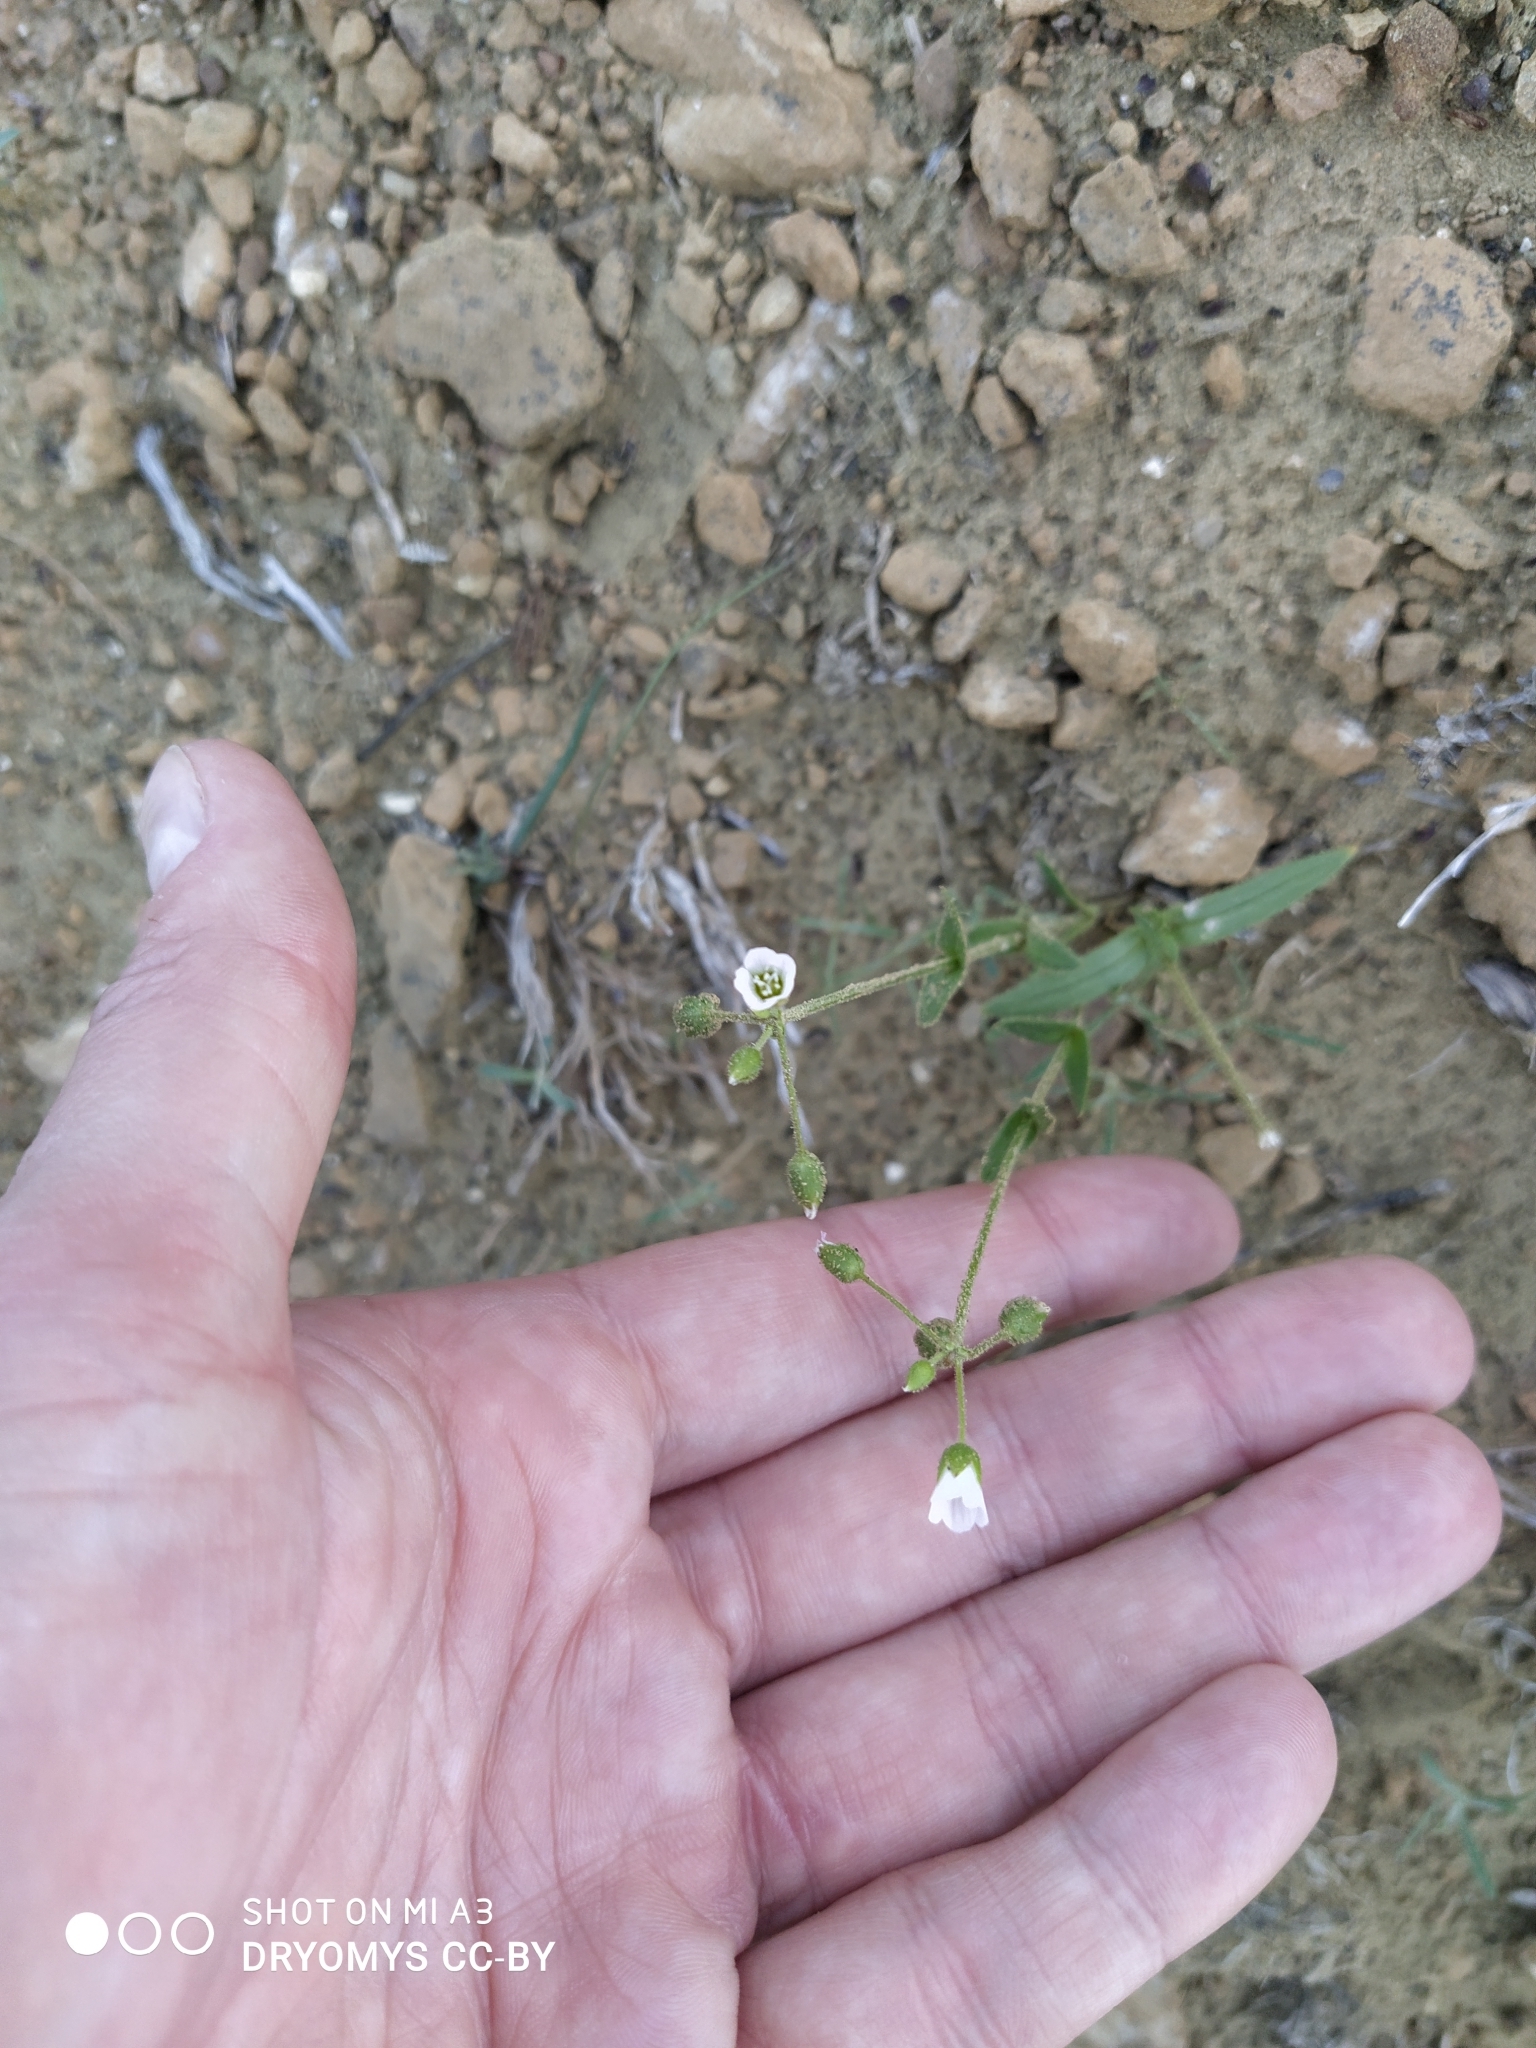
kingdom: Plantae
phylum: Tracheophyta
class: Magnoliopsida
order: Caryophyllales
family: Caryophyllaceae
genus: Holosteum
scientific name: Holosteum glutinosum
